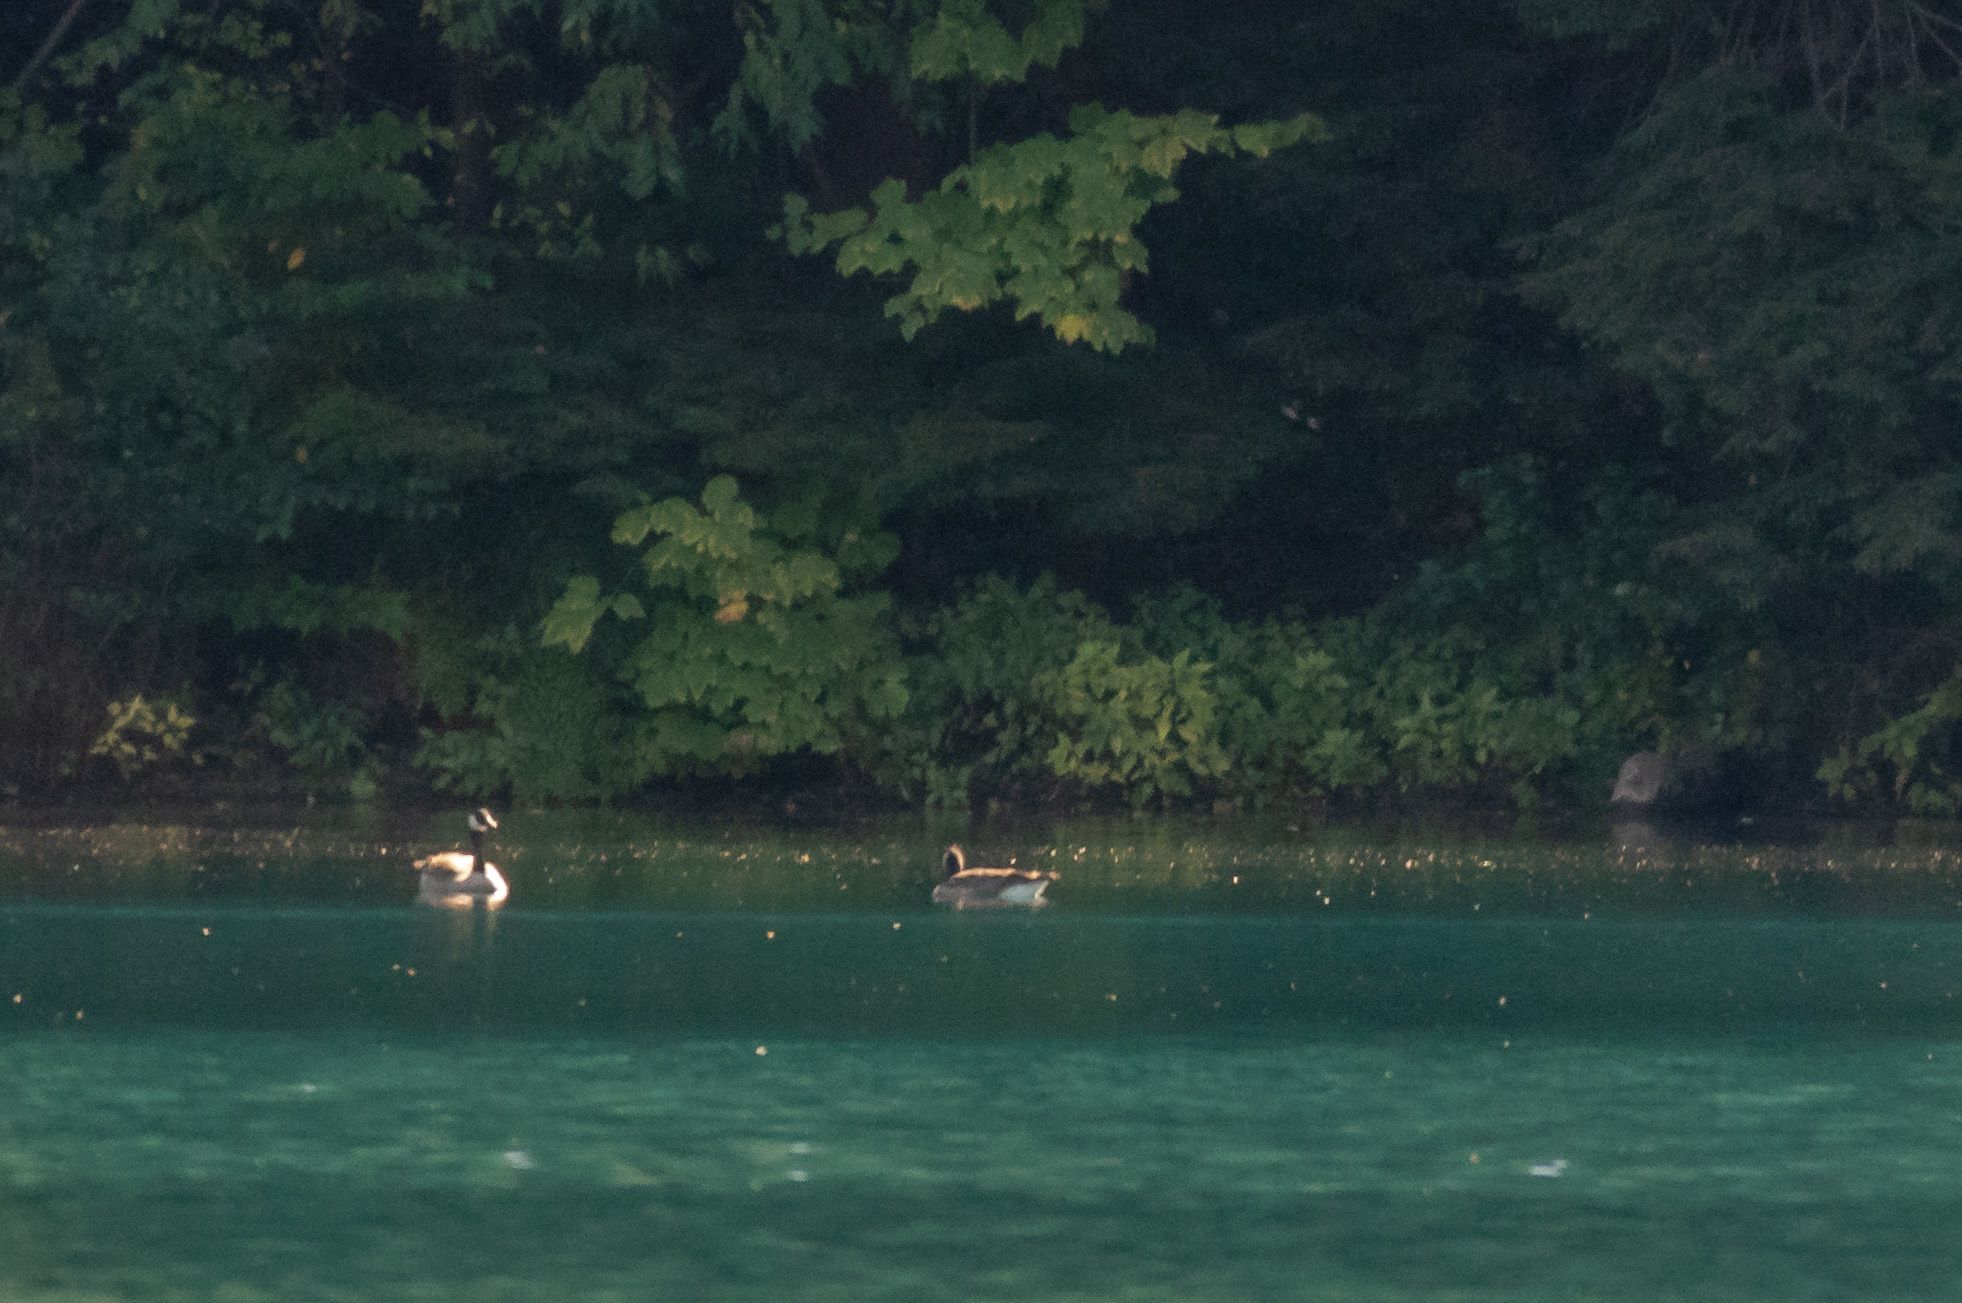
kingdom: Animalia
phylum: Chordata
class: Aves
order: Anseriformes
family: Anatidae
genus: Branta
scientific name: Branta canadensis
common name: Canada goose
